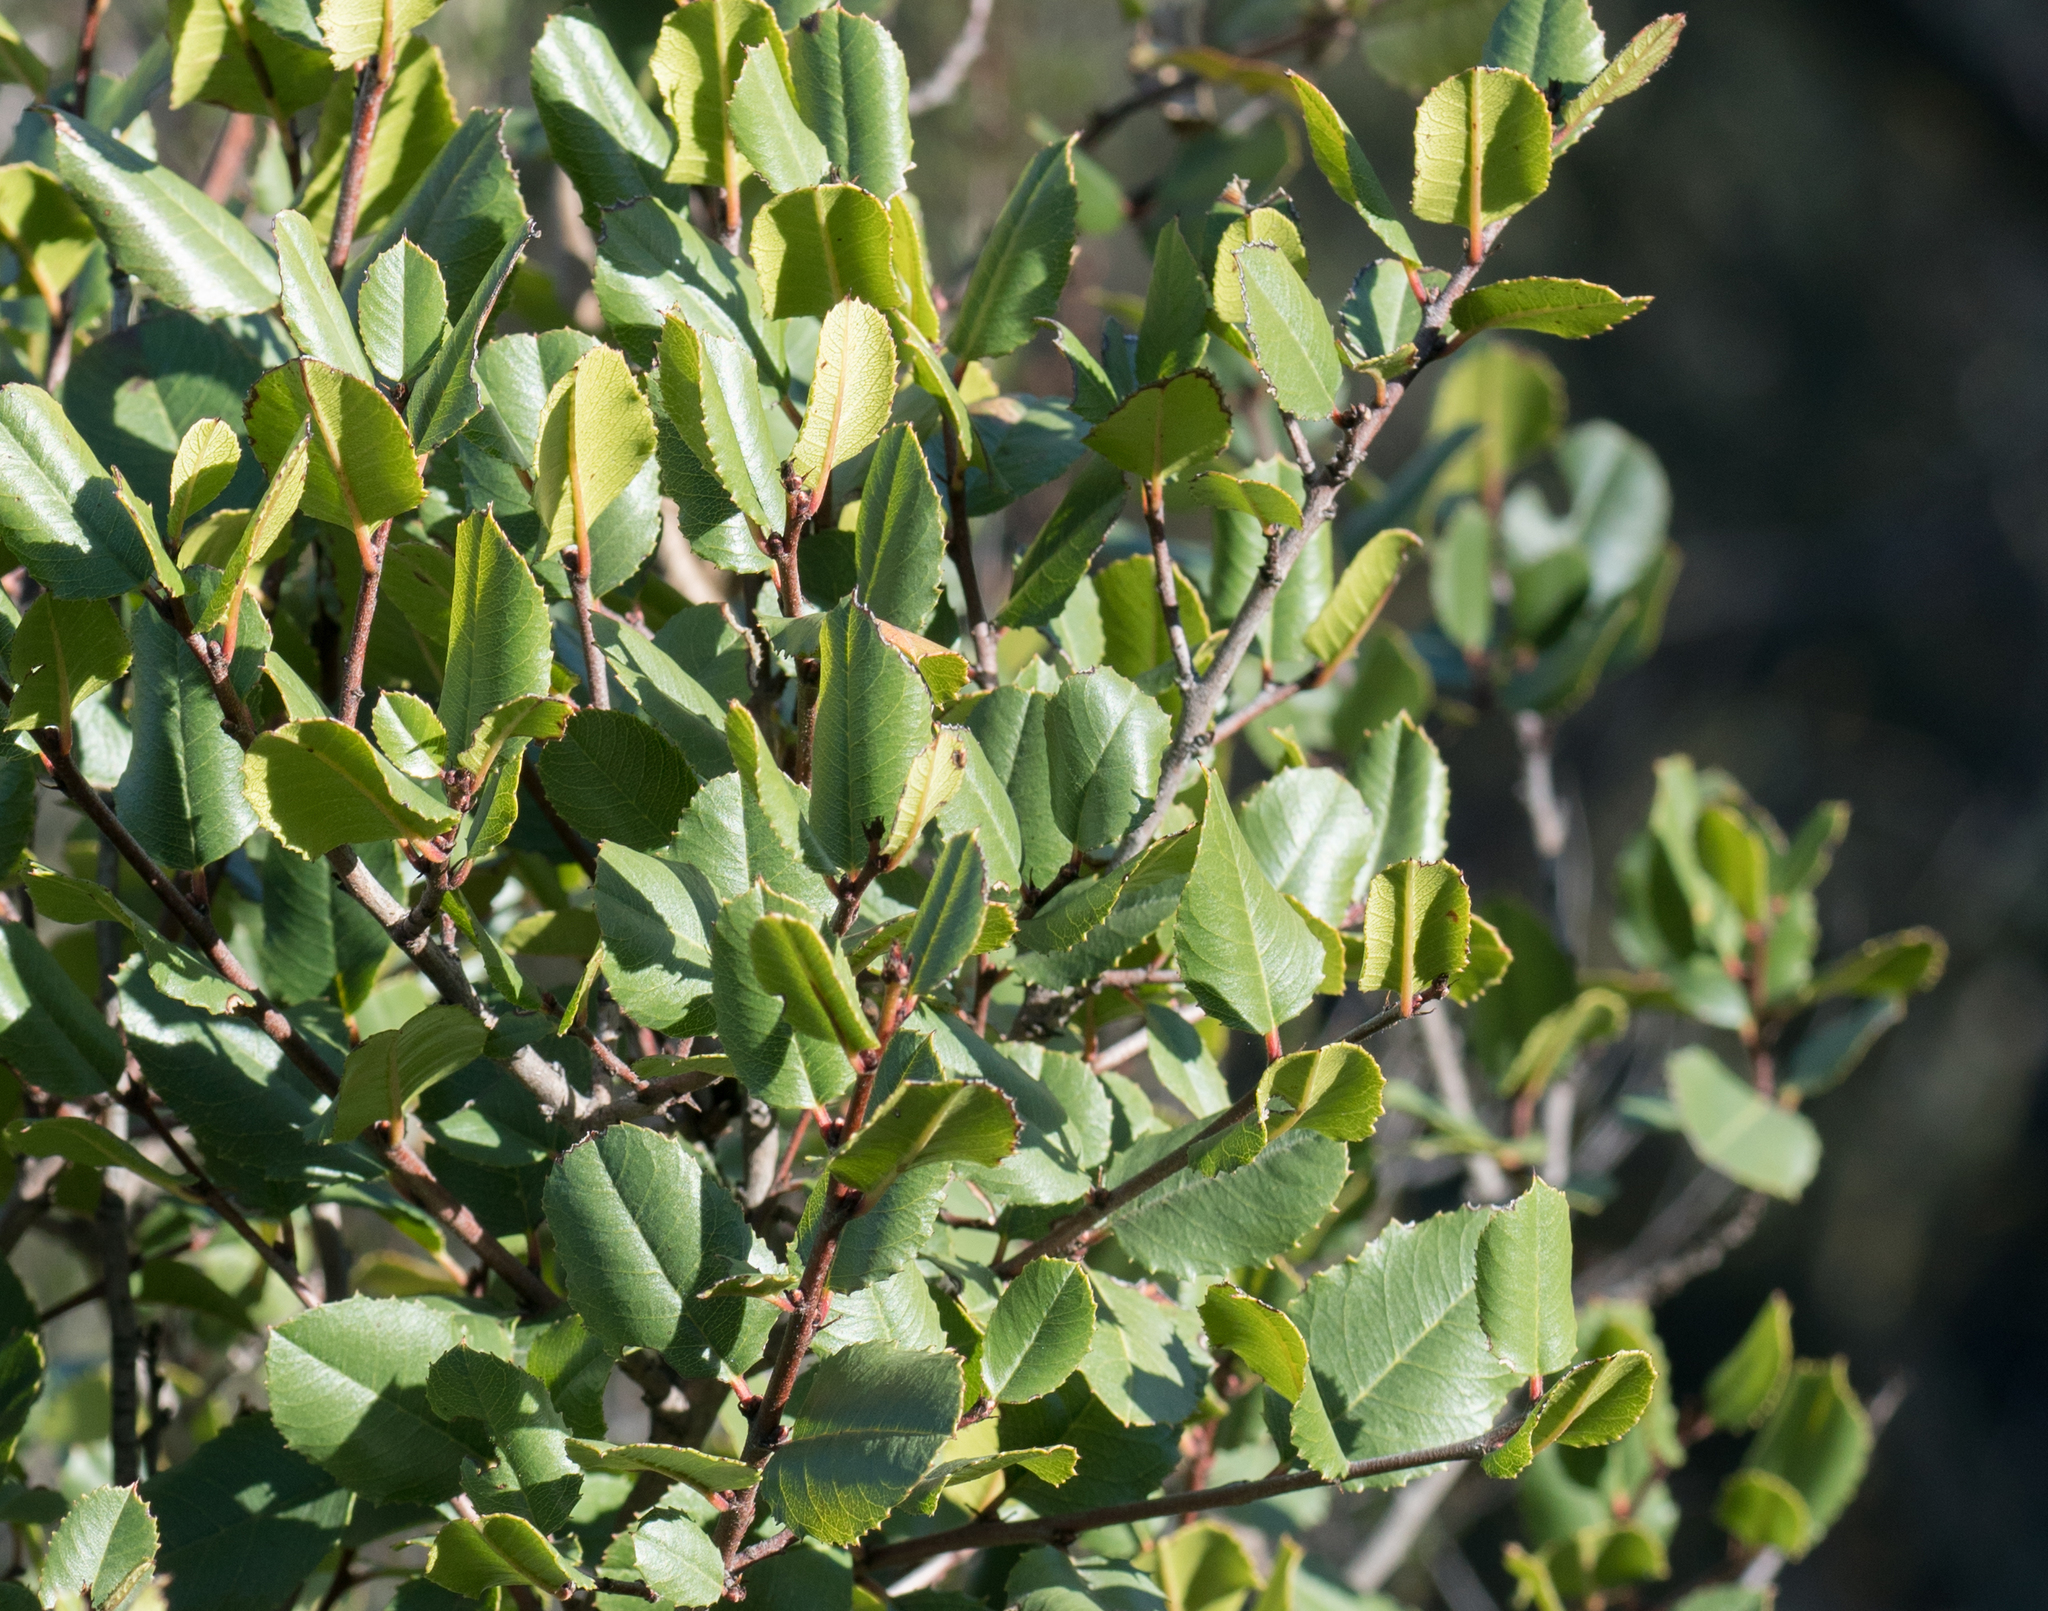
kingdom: Plantae
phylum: Tracheophyta
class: Magnoliopsida
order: Rosales
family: Rhamnaceae
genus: Endotropis
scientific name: Endotropis crocea
